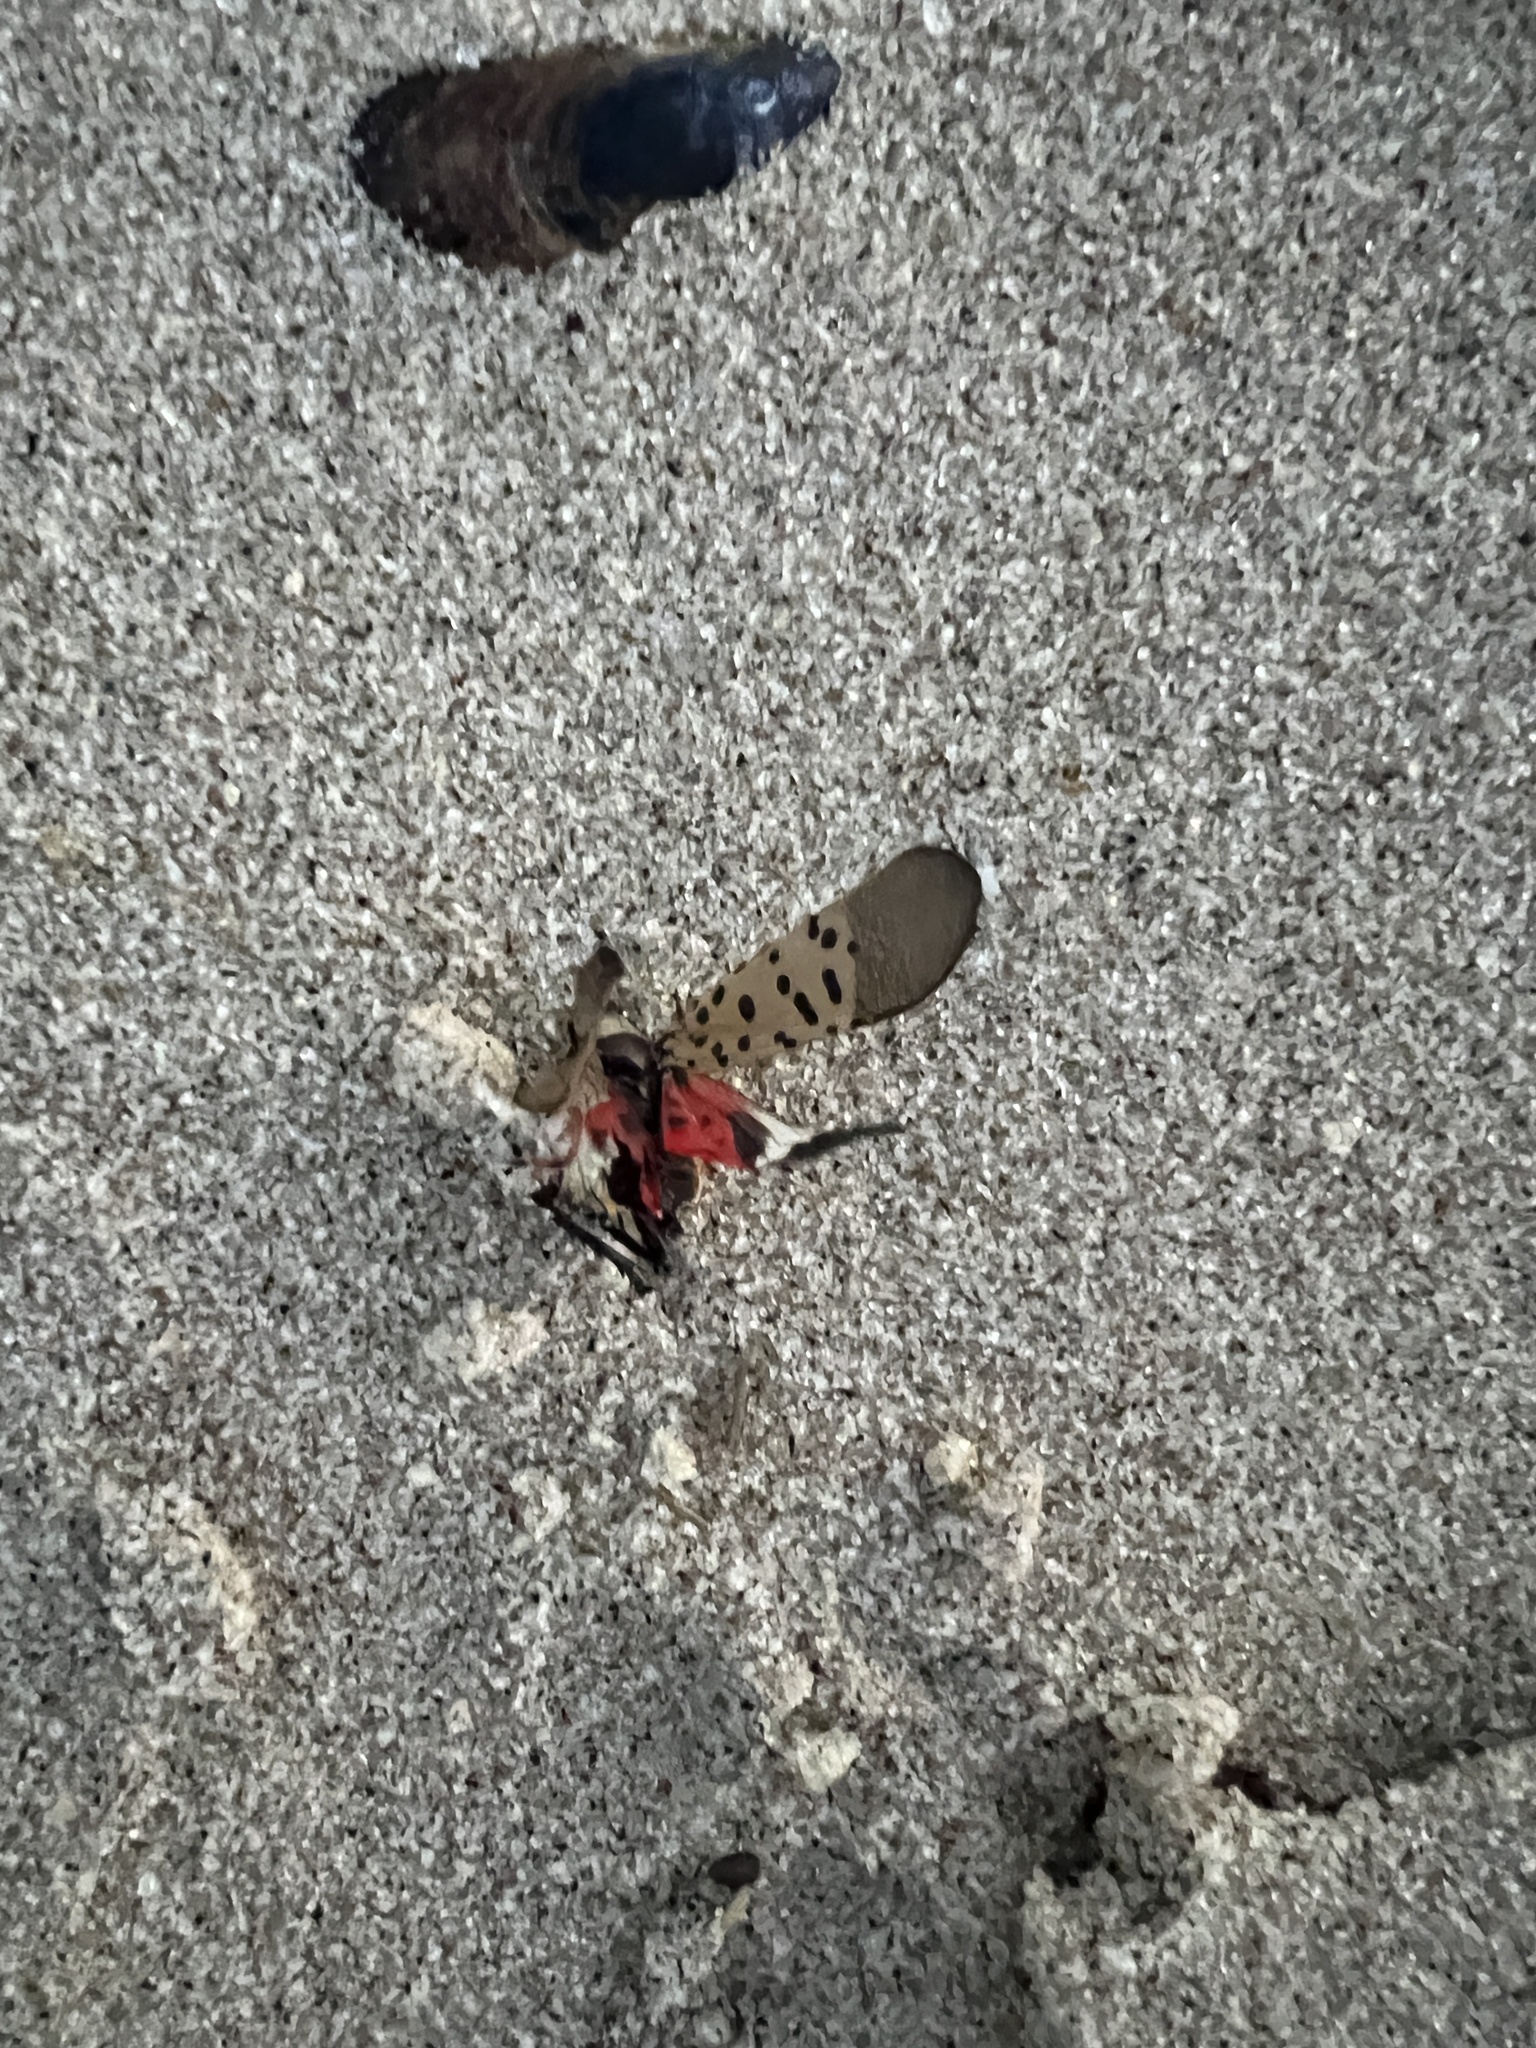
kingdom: Animalia
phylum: Arthropoda
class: Insecta
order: Hemiptera
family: Fulgoridae
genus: Lycorma
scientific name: Lycorma delicatula
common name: Spotted lanternfly
